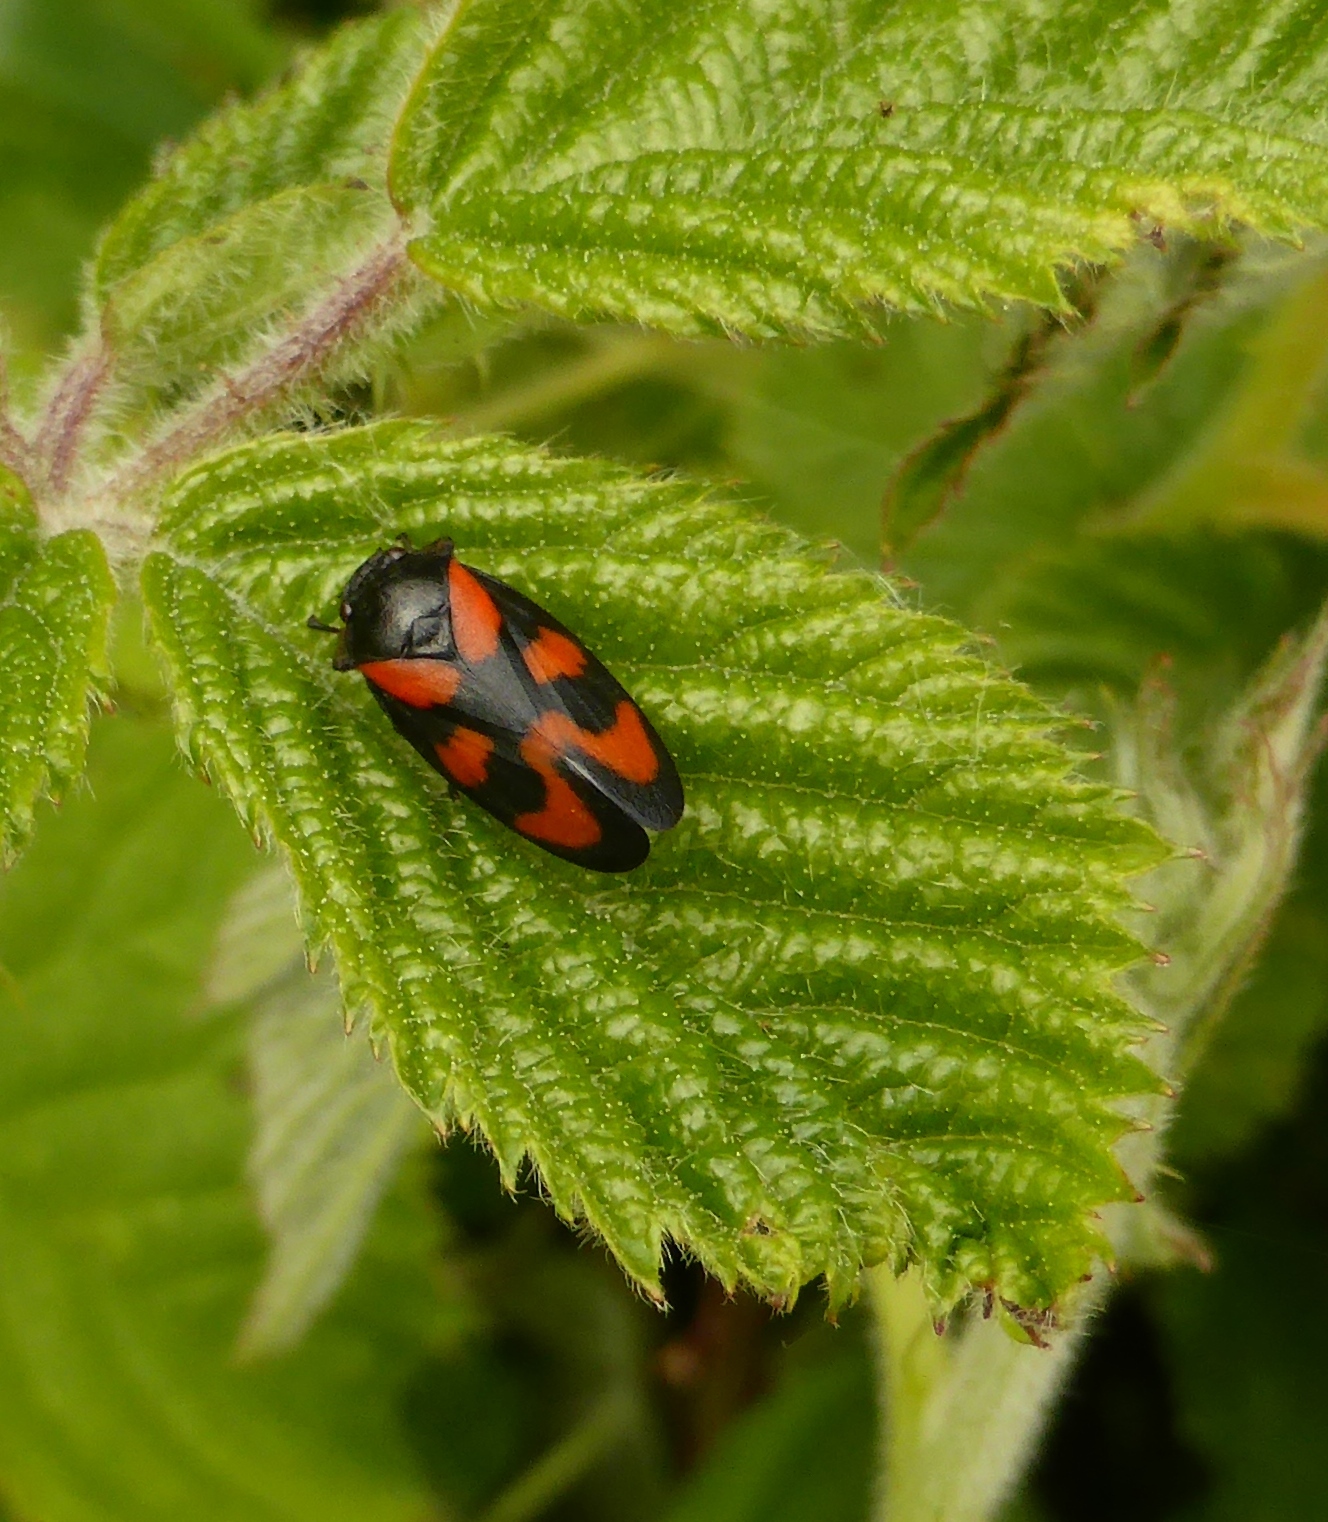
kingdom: Animalia
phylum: Arthropoda
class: Insecta
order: Hemiptera
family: Cercopidae
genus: Cercopis
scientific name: Cercopis vulnerata
